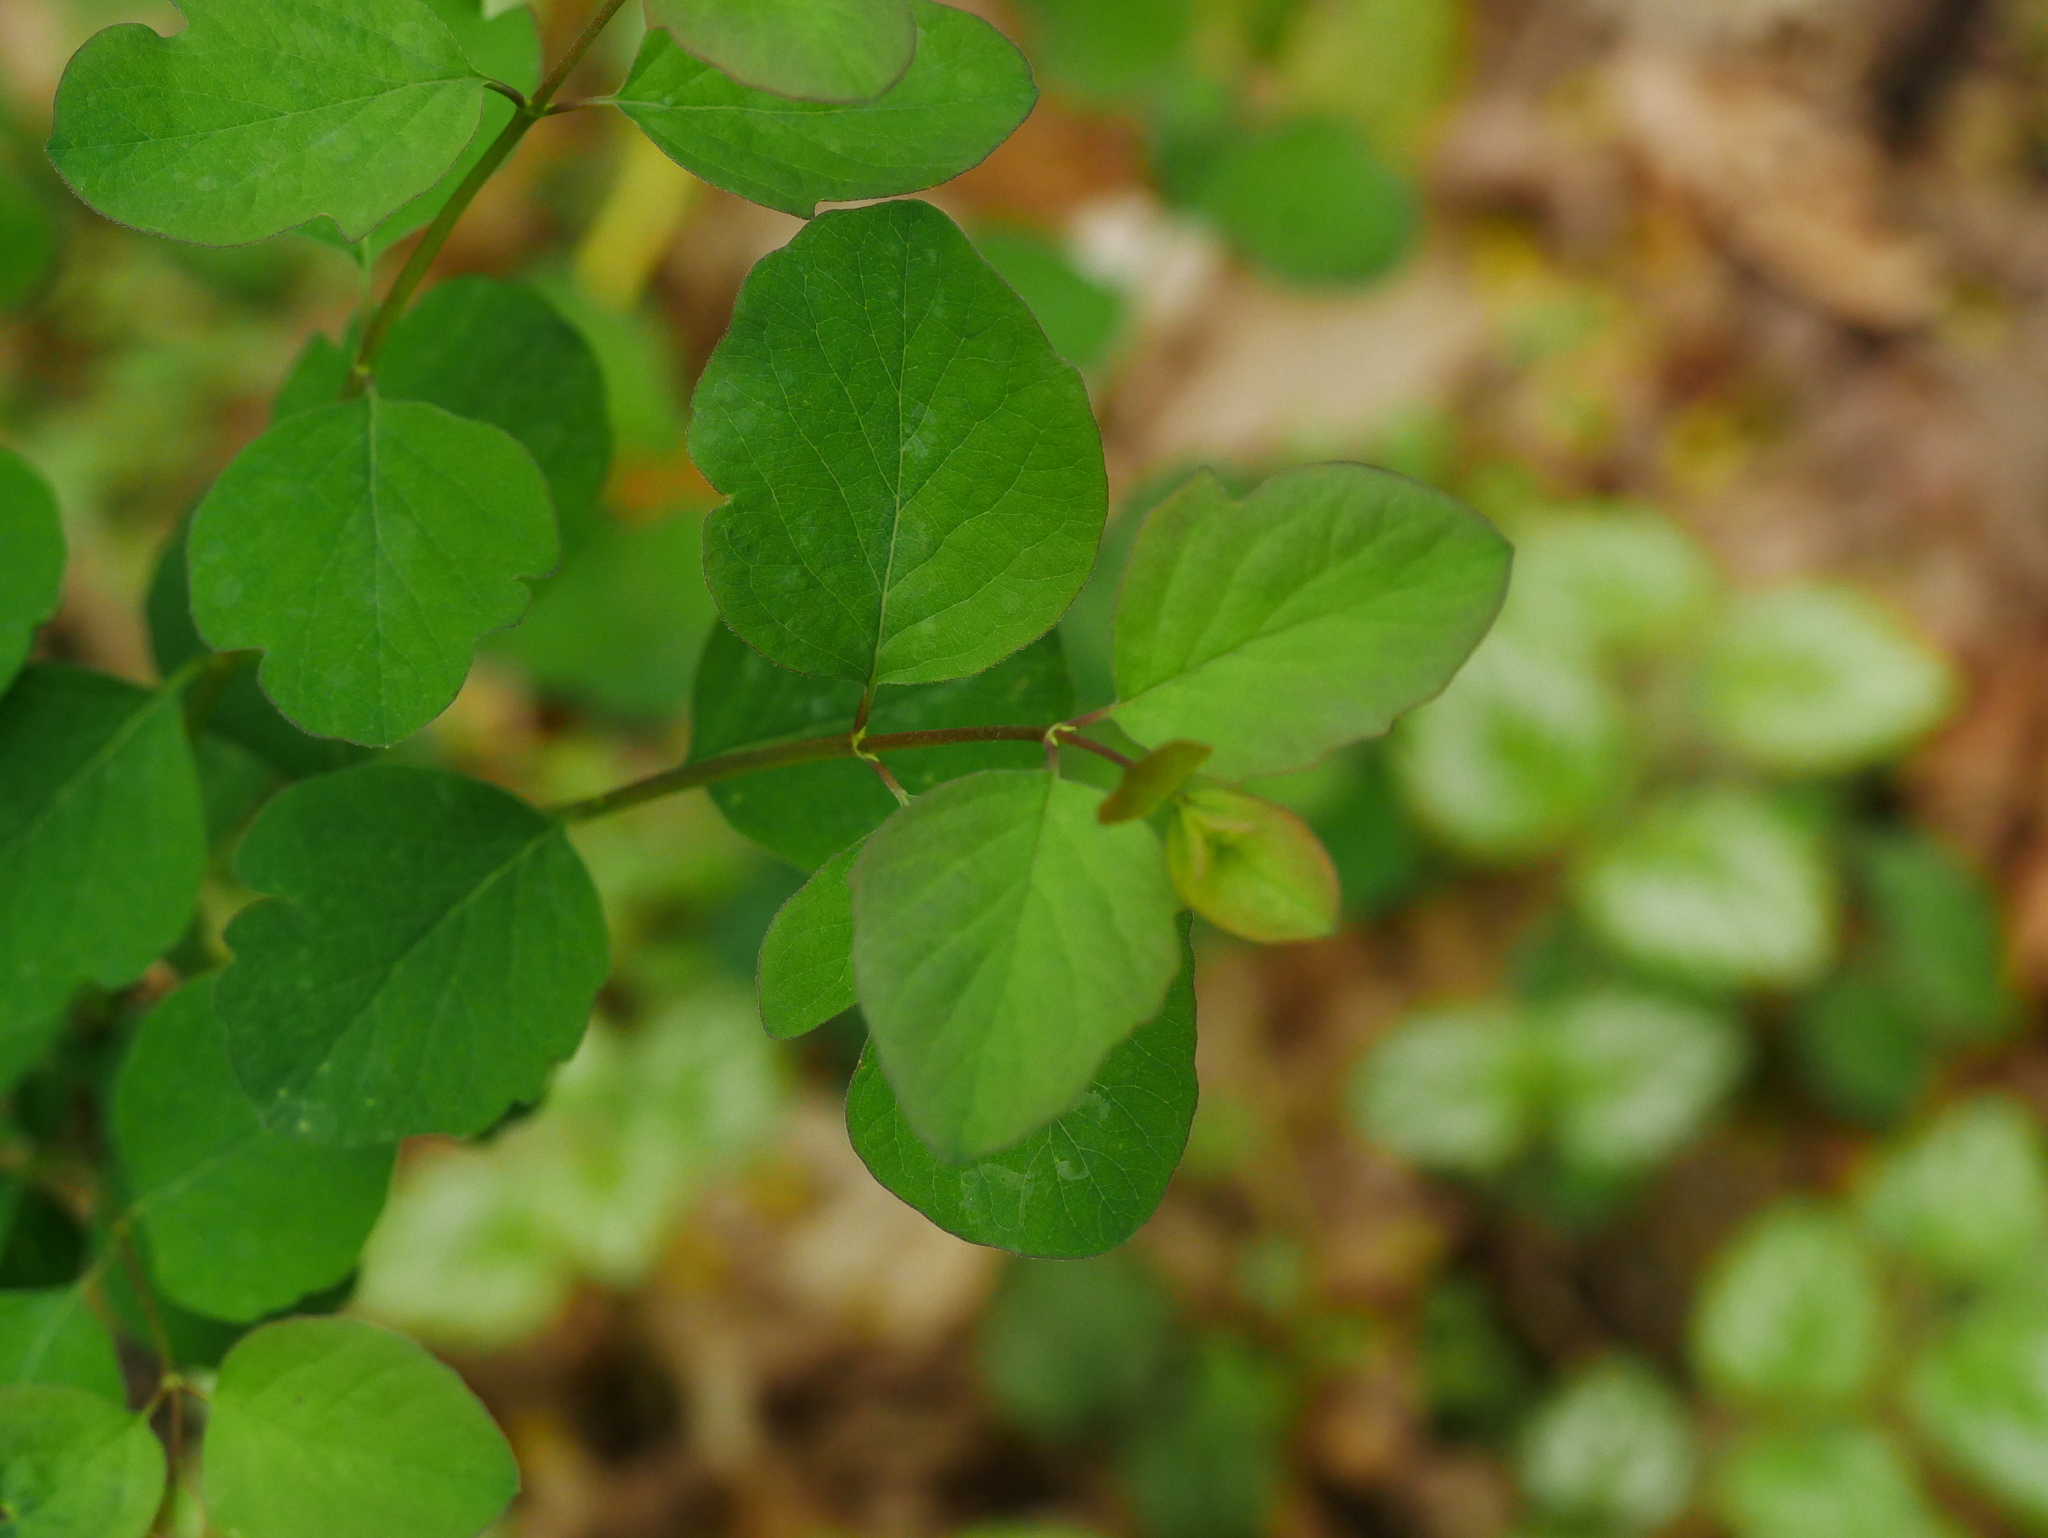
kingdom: Plantae
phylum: Tracheophyta
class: Magnoliopsida
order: Dipsacales
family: Caprifoliaceae
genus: Symphoricarpos
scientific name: Symphoricarpos albus
